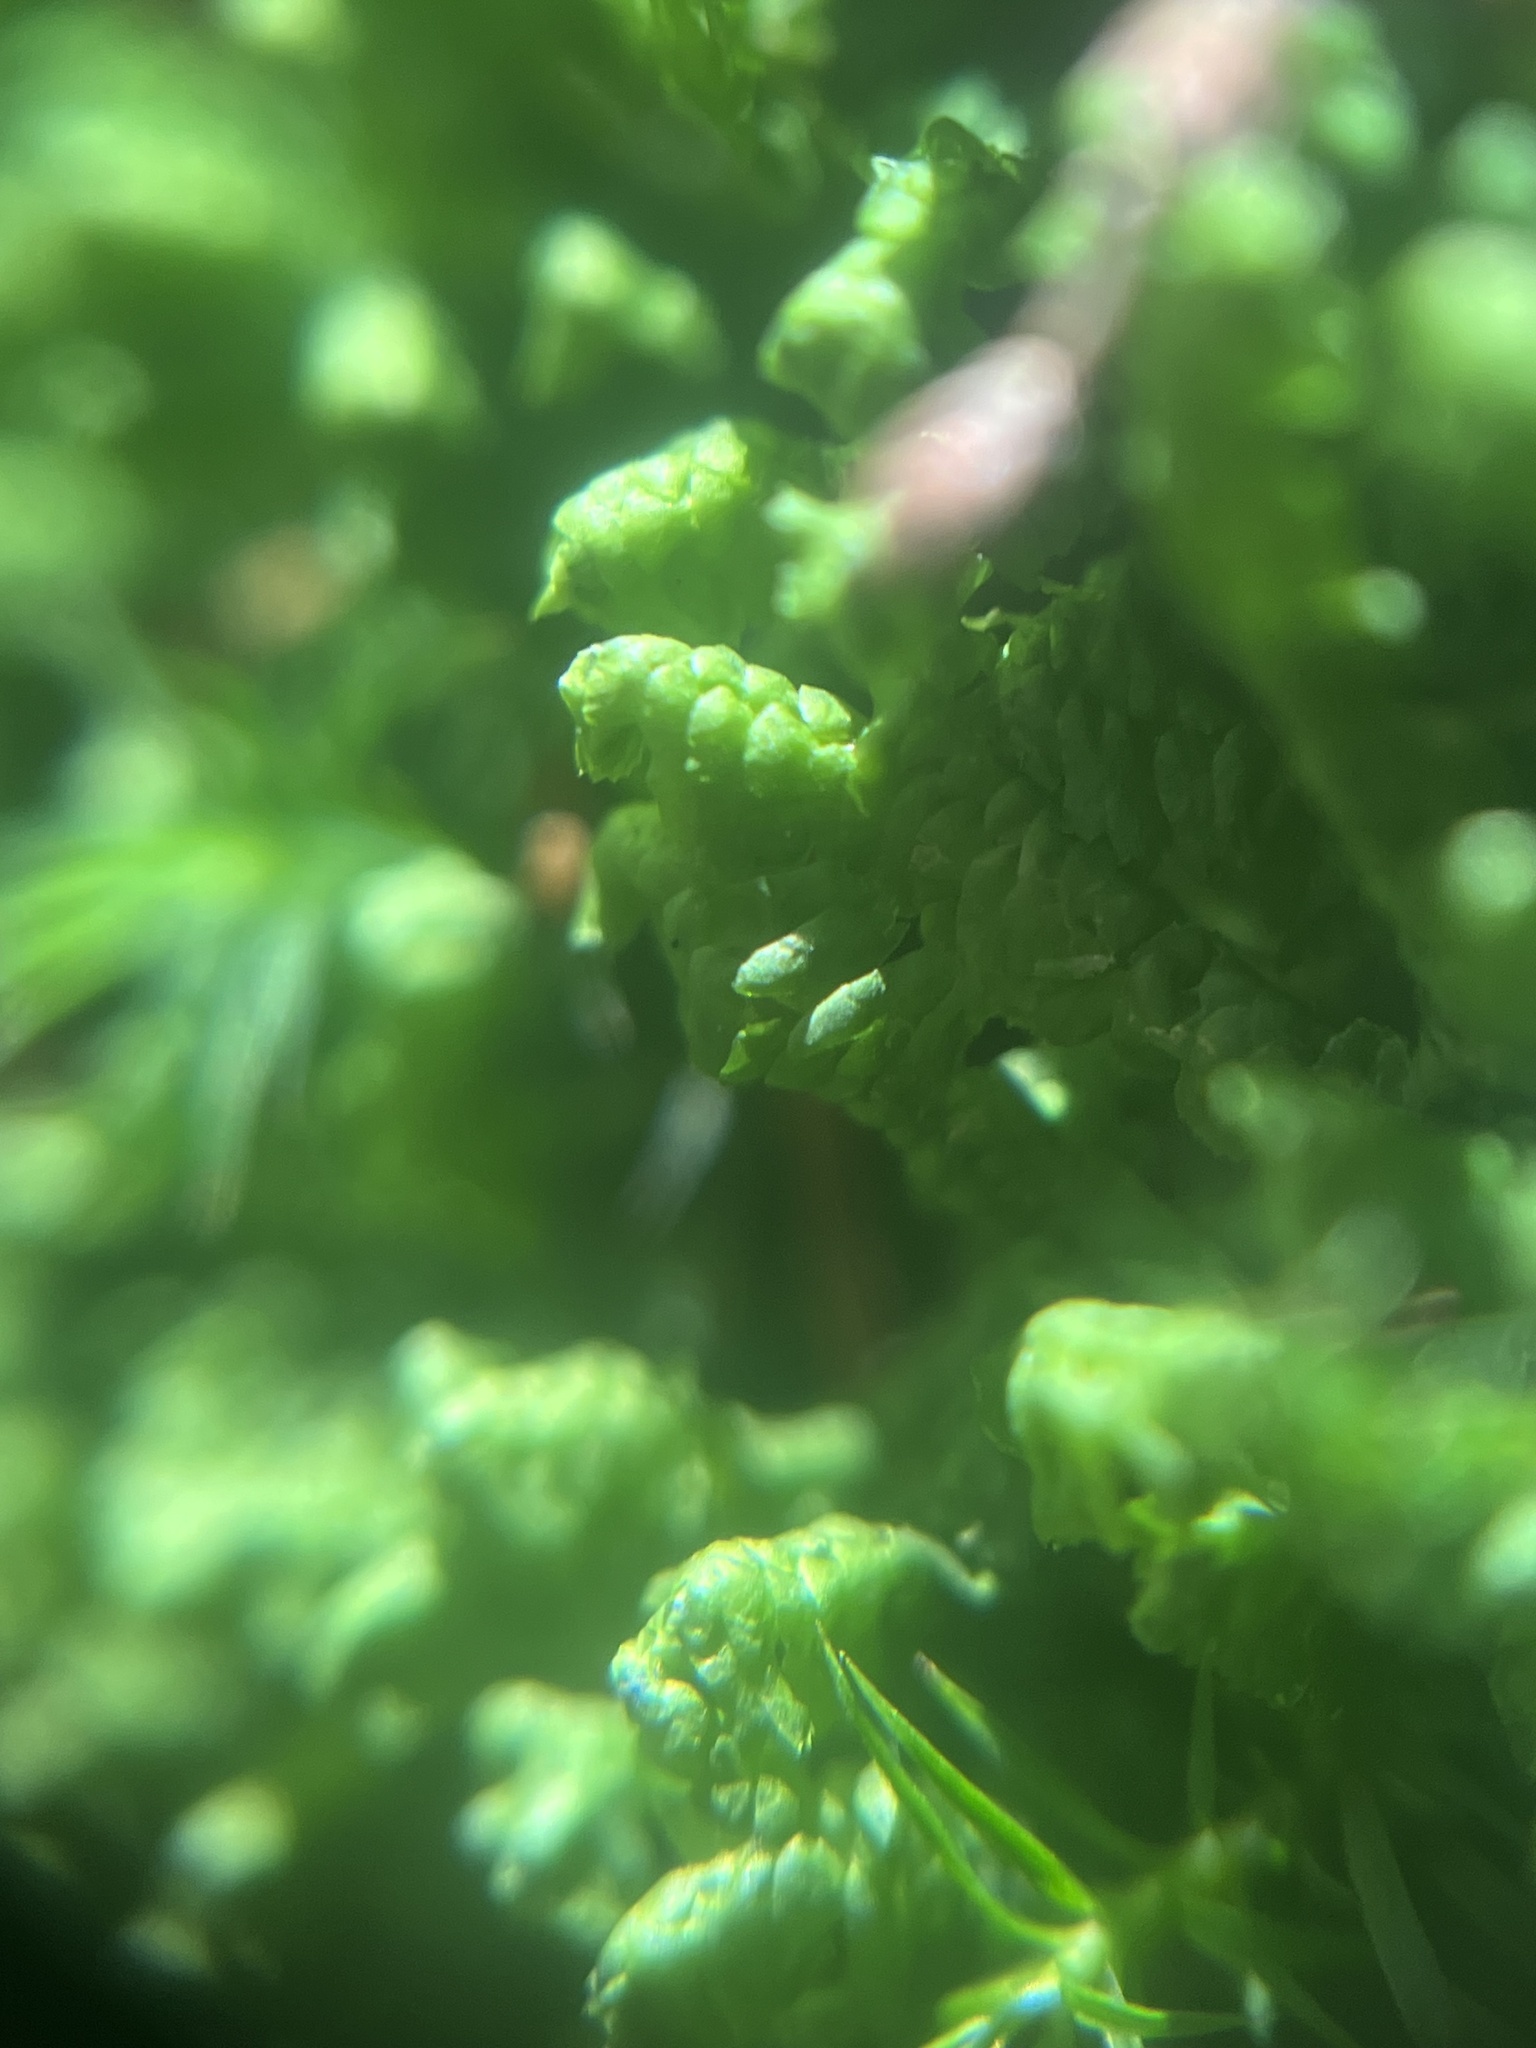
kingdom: Plantae
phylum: Marchantiophyta
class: Jungermanniopsida
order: Jungermanniales
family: Lepidoziaceae
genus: Bazzania
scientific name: Bazzania trilobata
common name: Three-lobed whipwort
